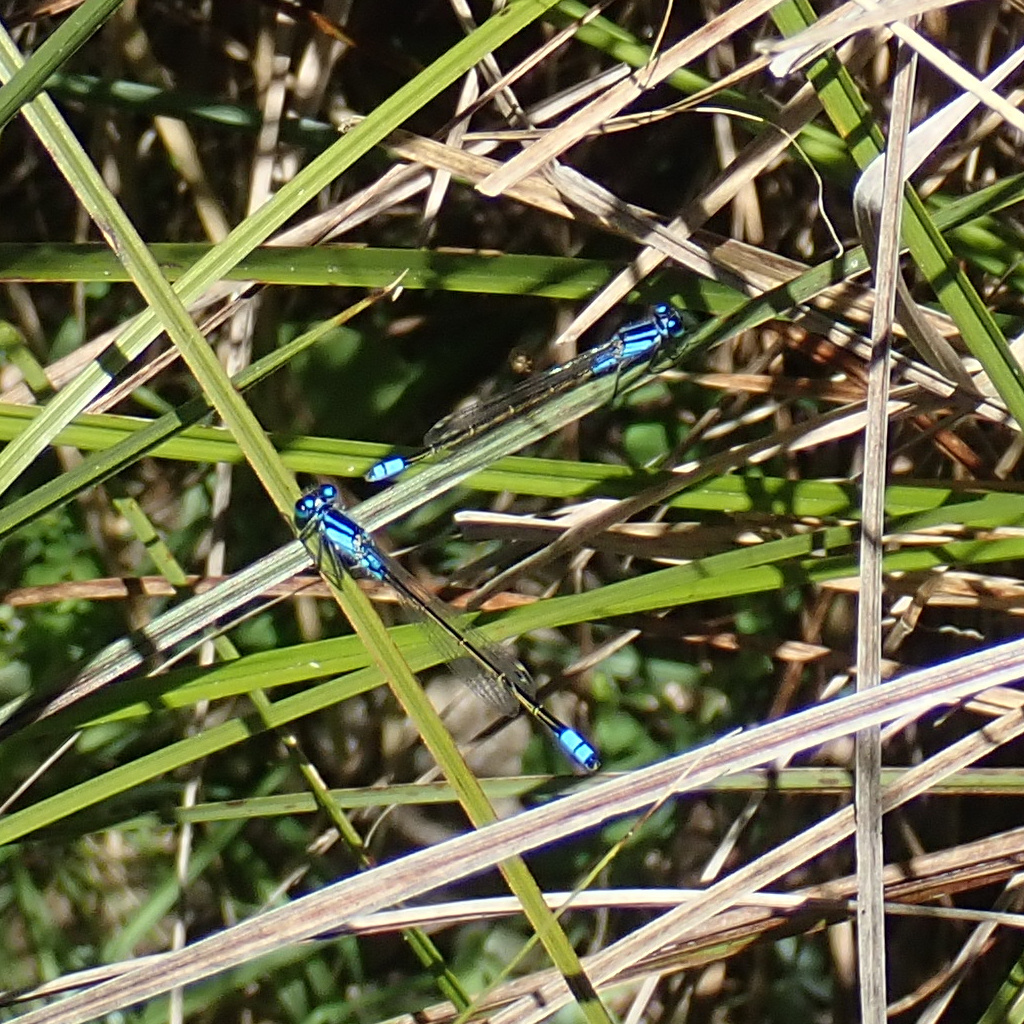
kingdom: Animalia
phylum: Arthropoda
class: Insecta
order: Odonata
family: Coenagrionidae
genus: Ischnura
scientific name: Ischnura heterosticta
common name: Common bluetail
